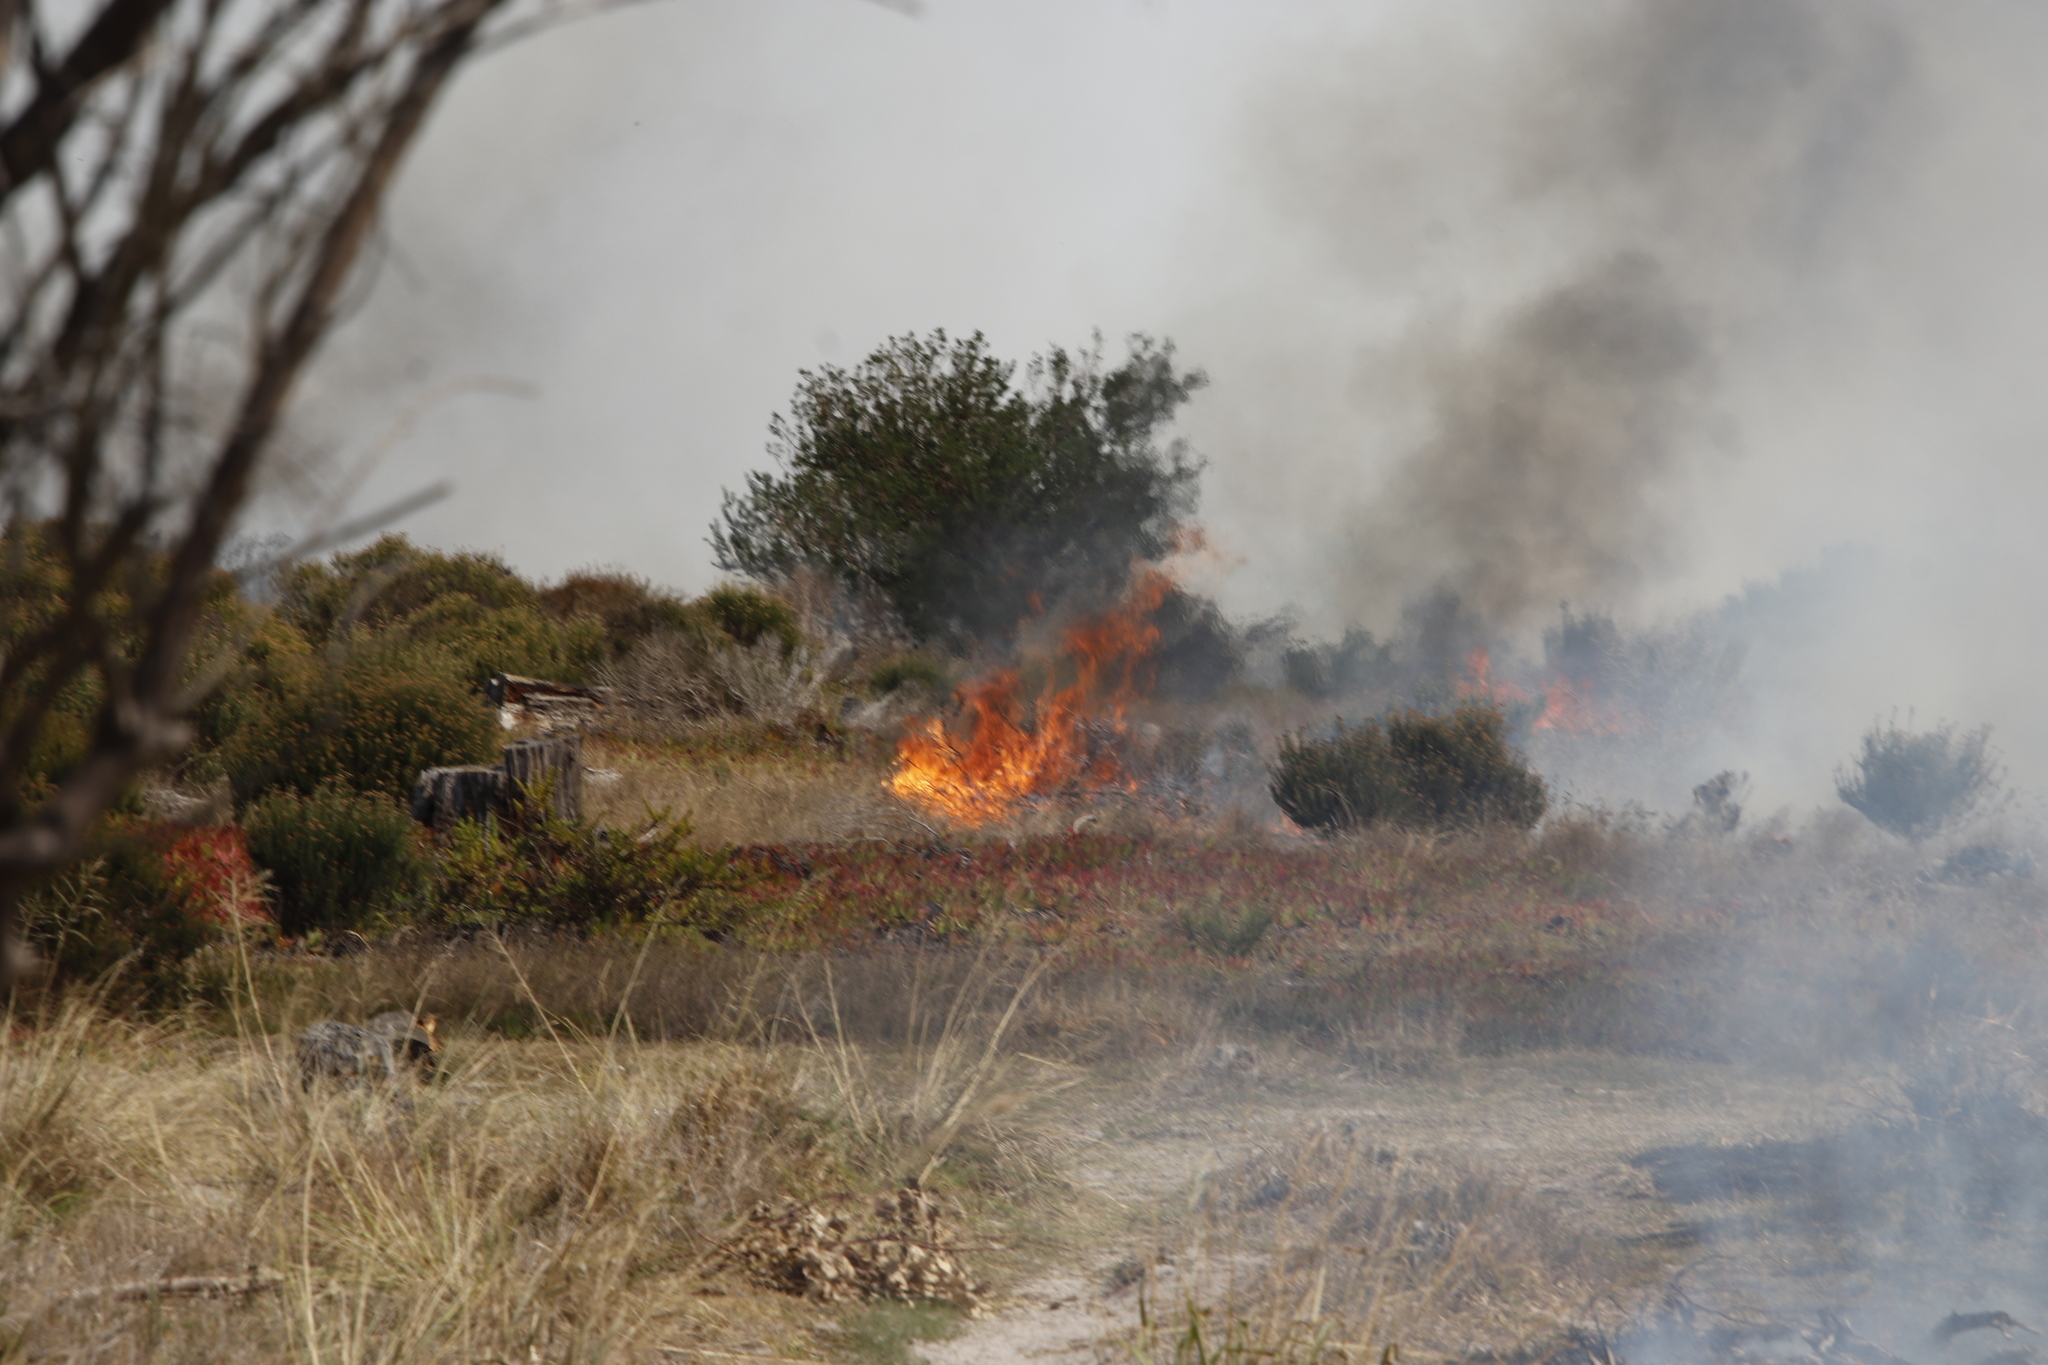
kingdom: Plantae
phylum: Tracheophyta
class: Magnoliopsida
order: Fabales
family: Fabaceae
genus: Virgilia
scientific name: Virgilia oroboides
